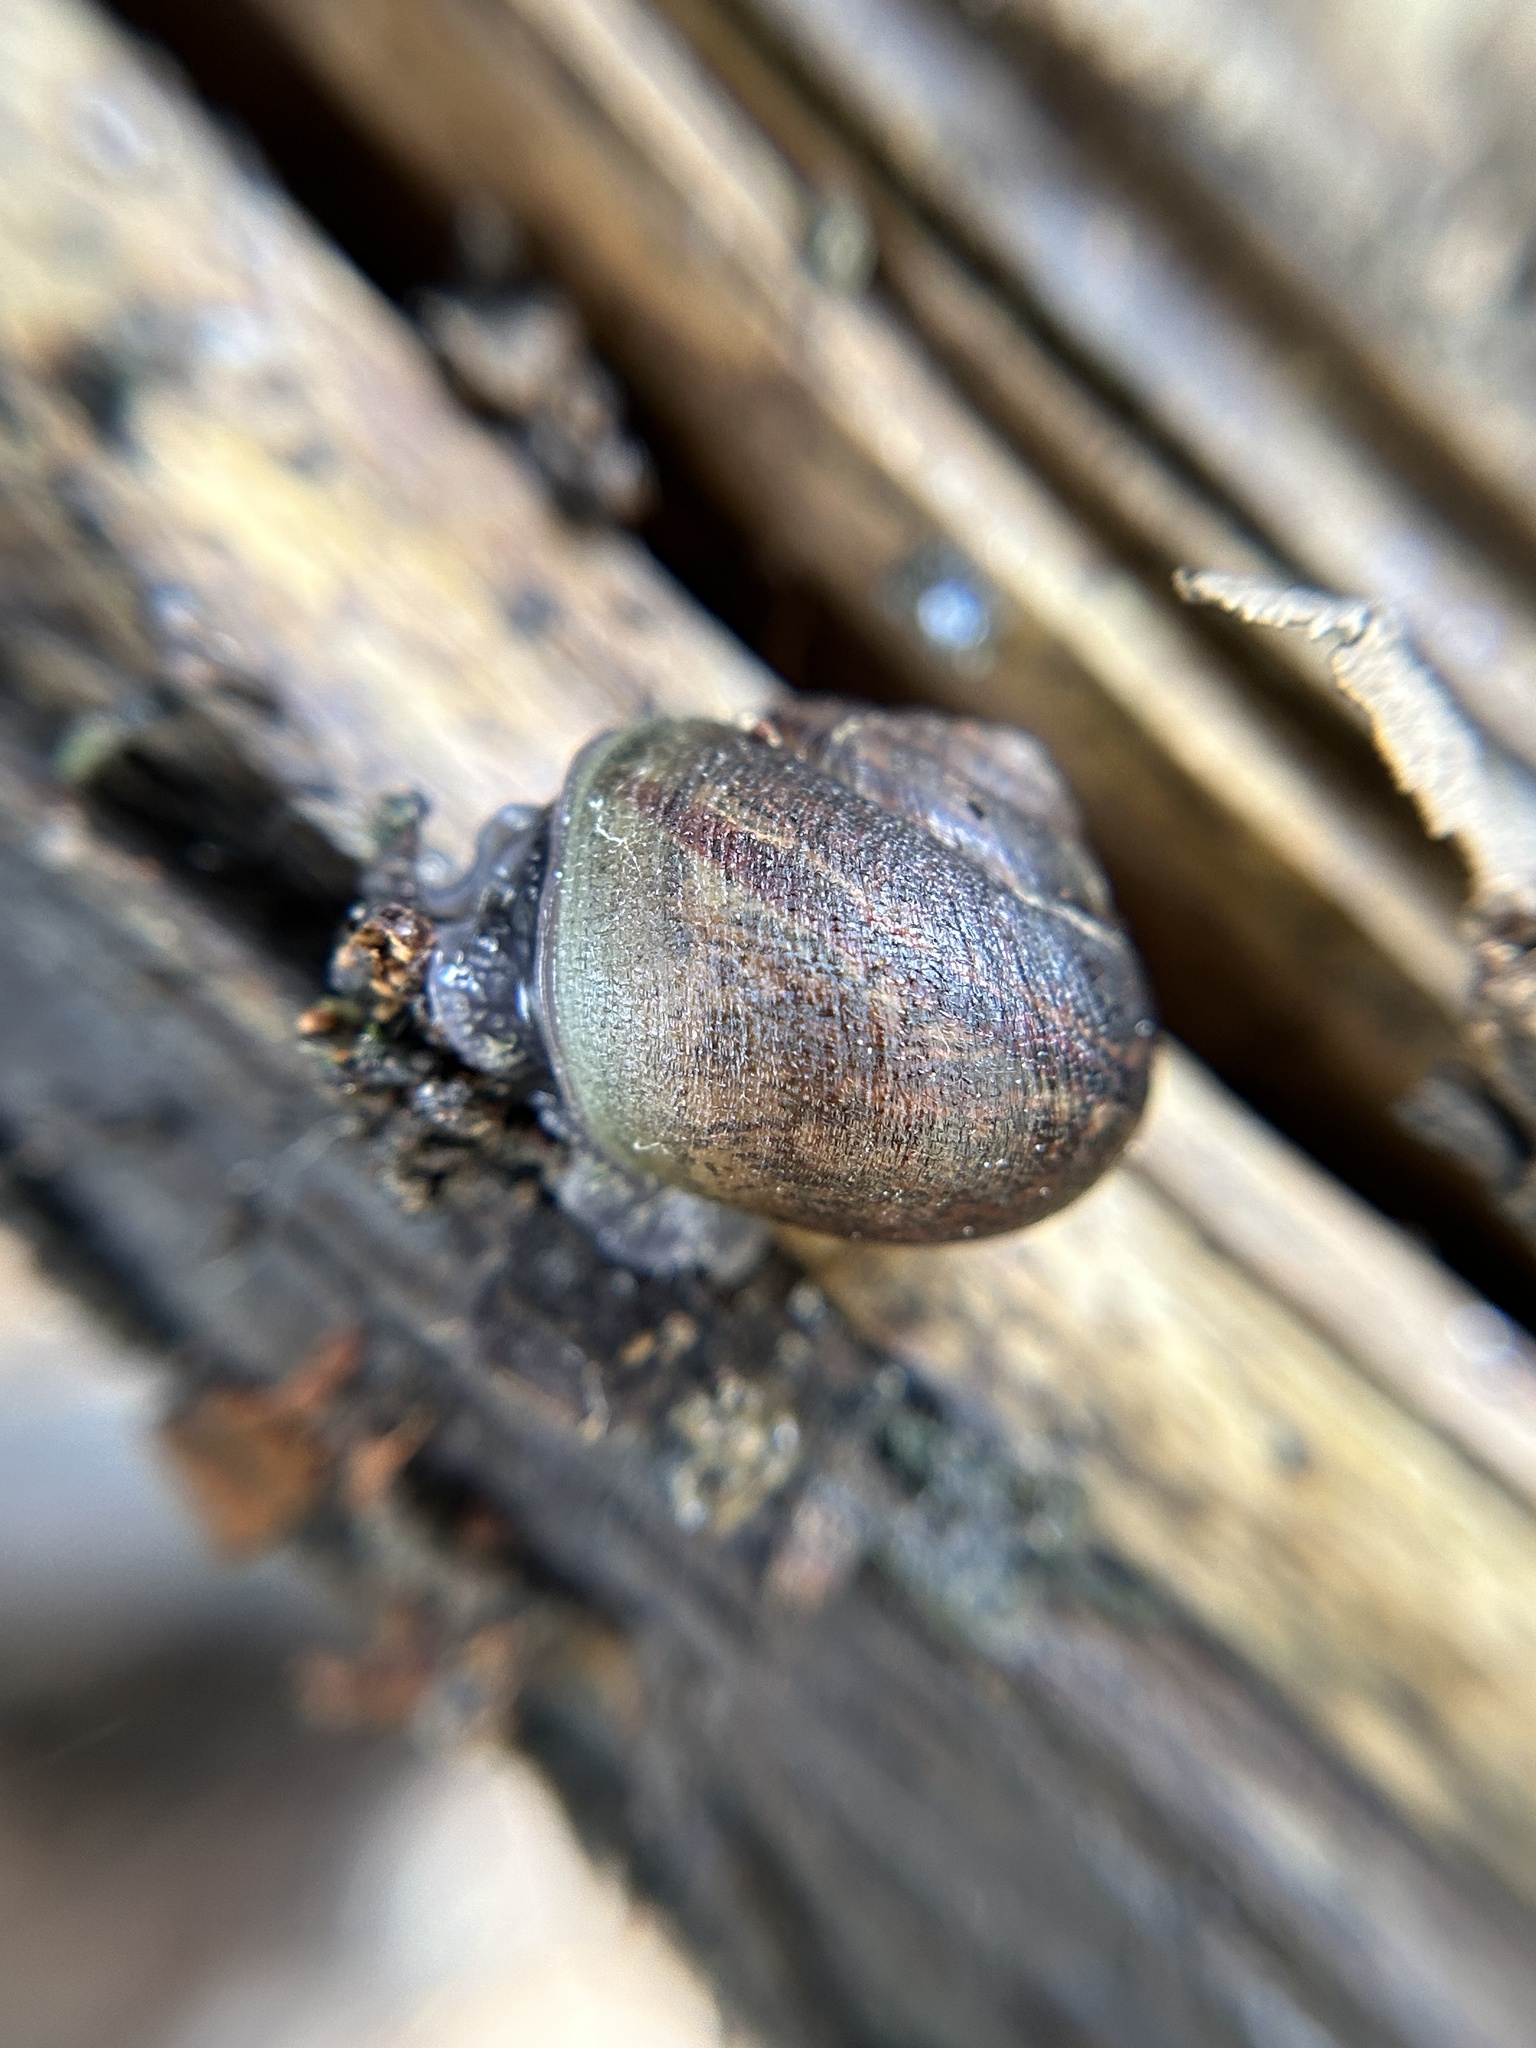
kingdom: Animalia
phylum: Mollusca
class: Gastropoda
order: Stylommatophora
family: Xanthonychidae
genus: Helminthoglypta
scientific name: Helminthoglypta walkeriana
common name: Banded dune snail
